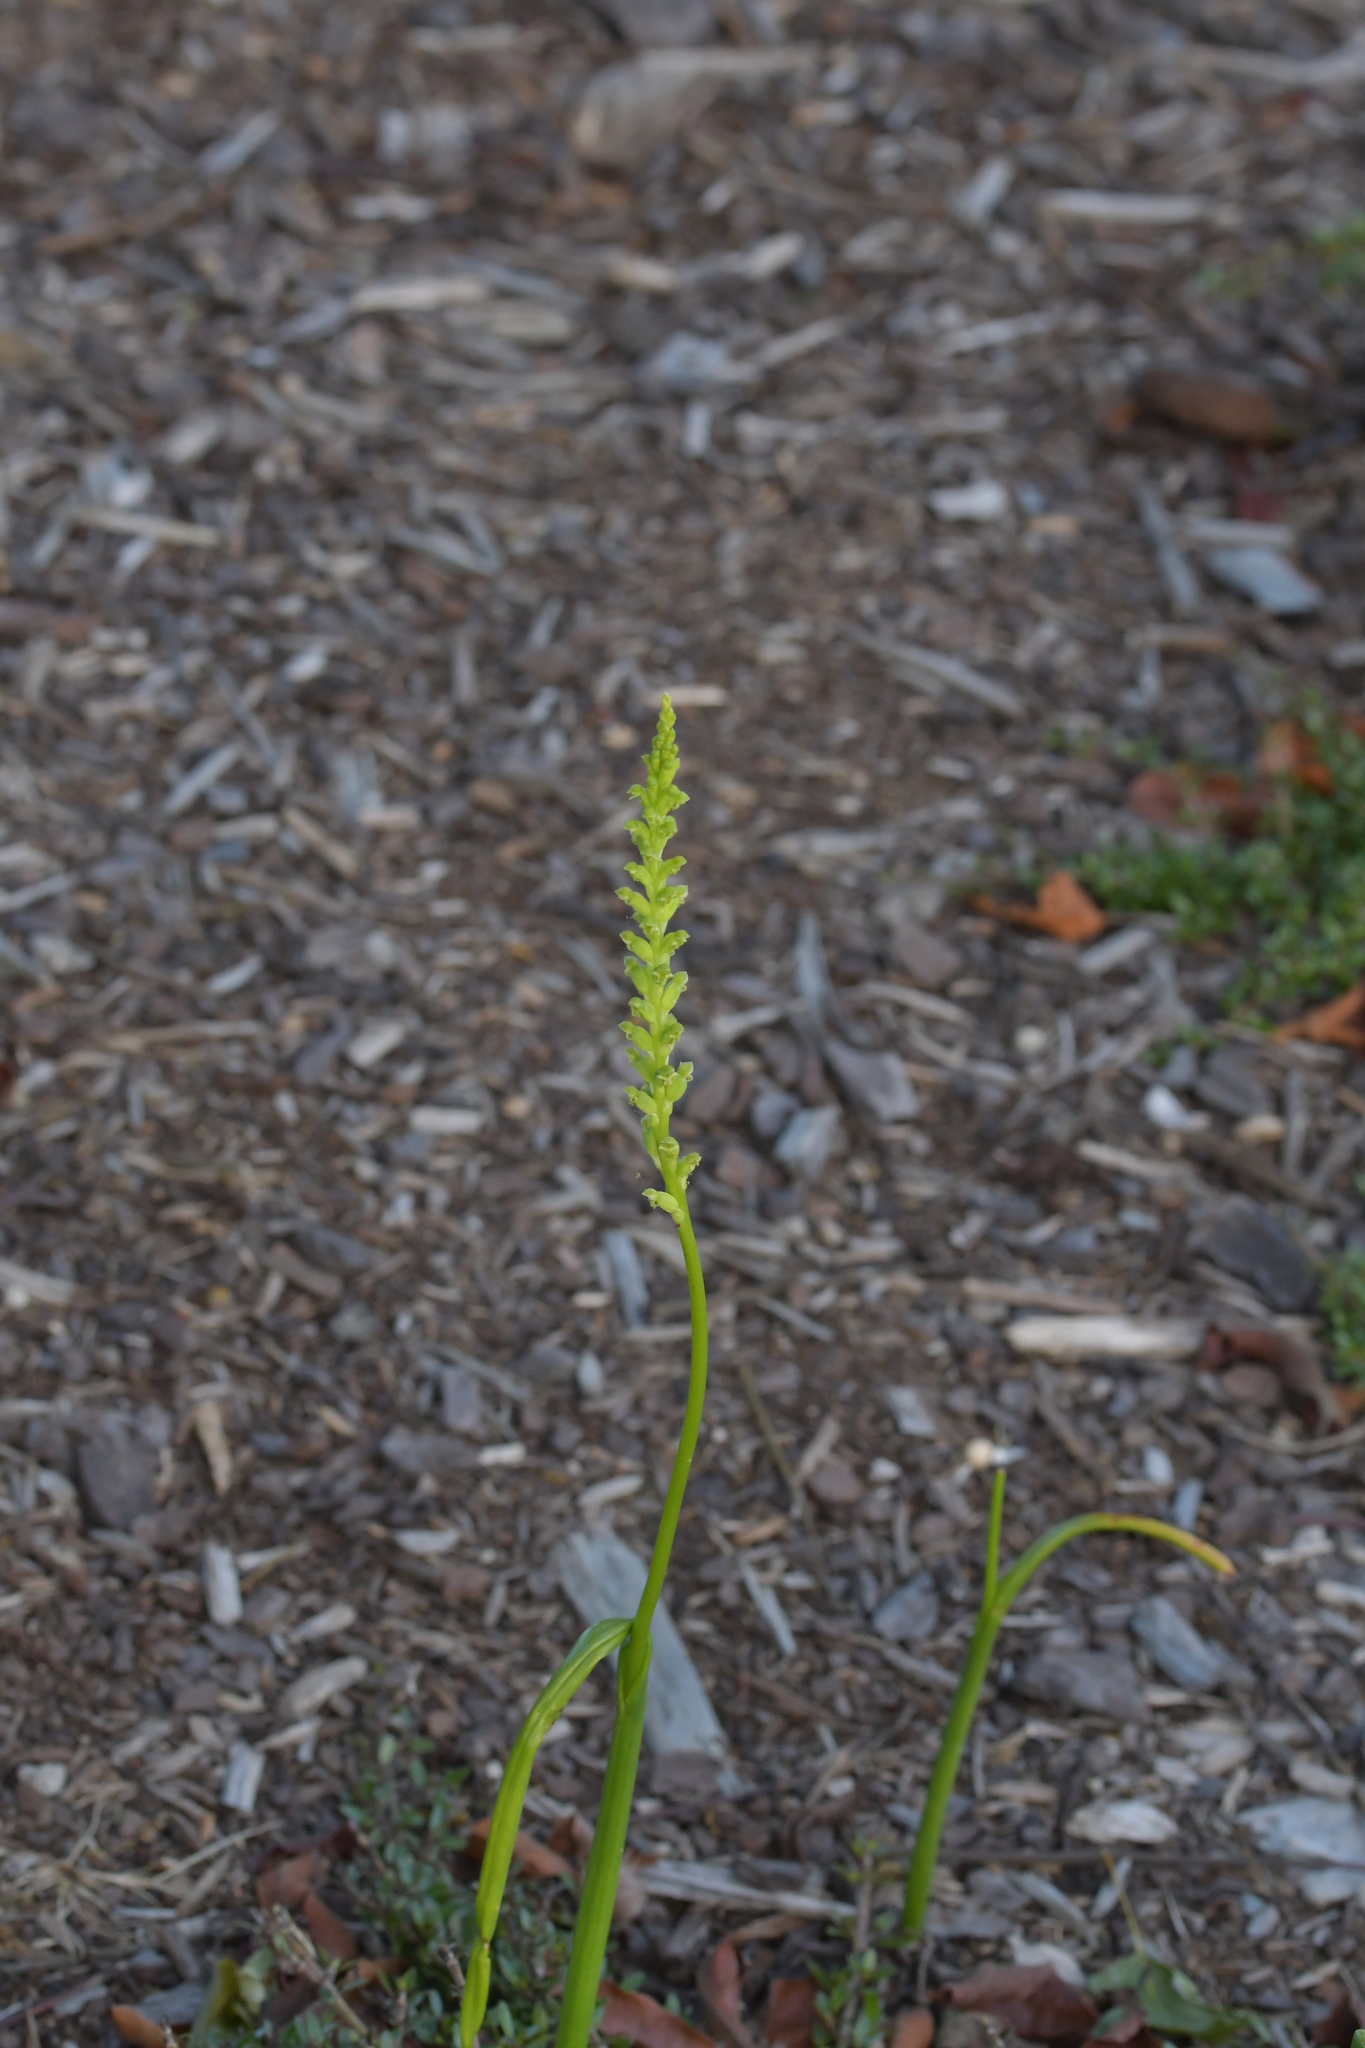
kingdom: Plantae
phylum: Tracheophyta
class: Liliopsida
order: Asparagales
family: Orchidaceae
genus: Microtis
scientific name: Microtis unifolia
